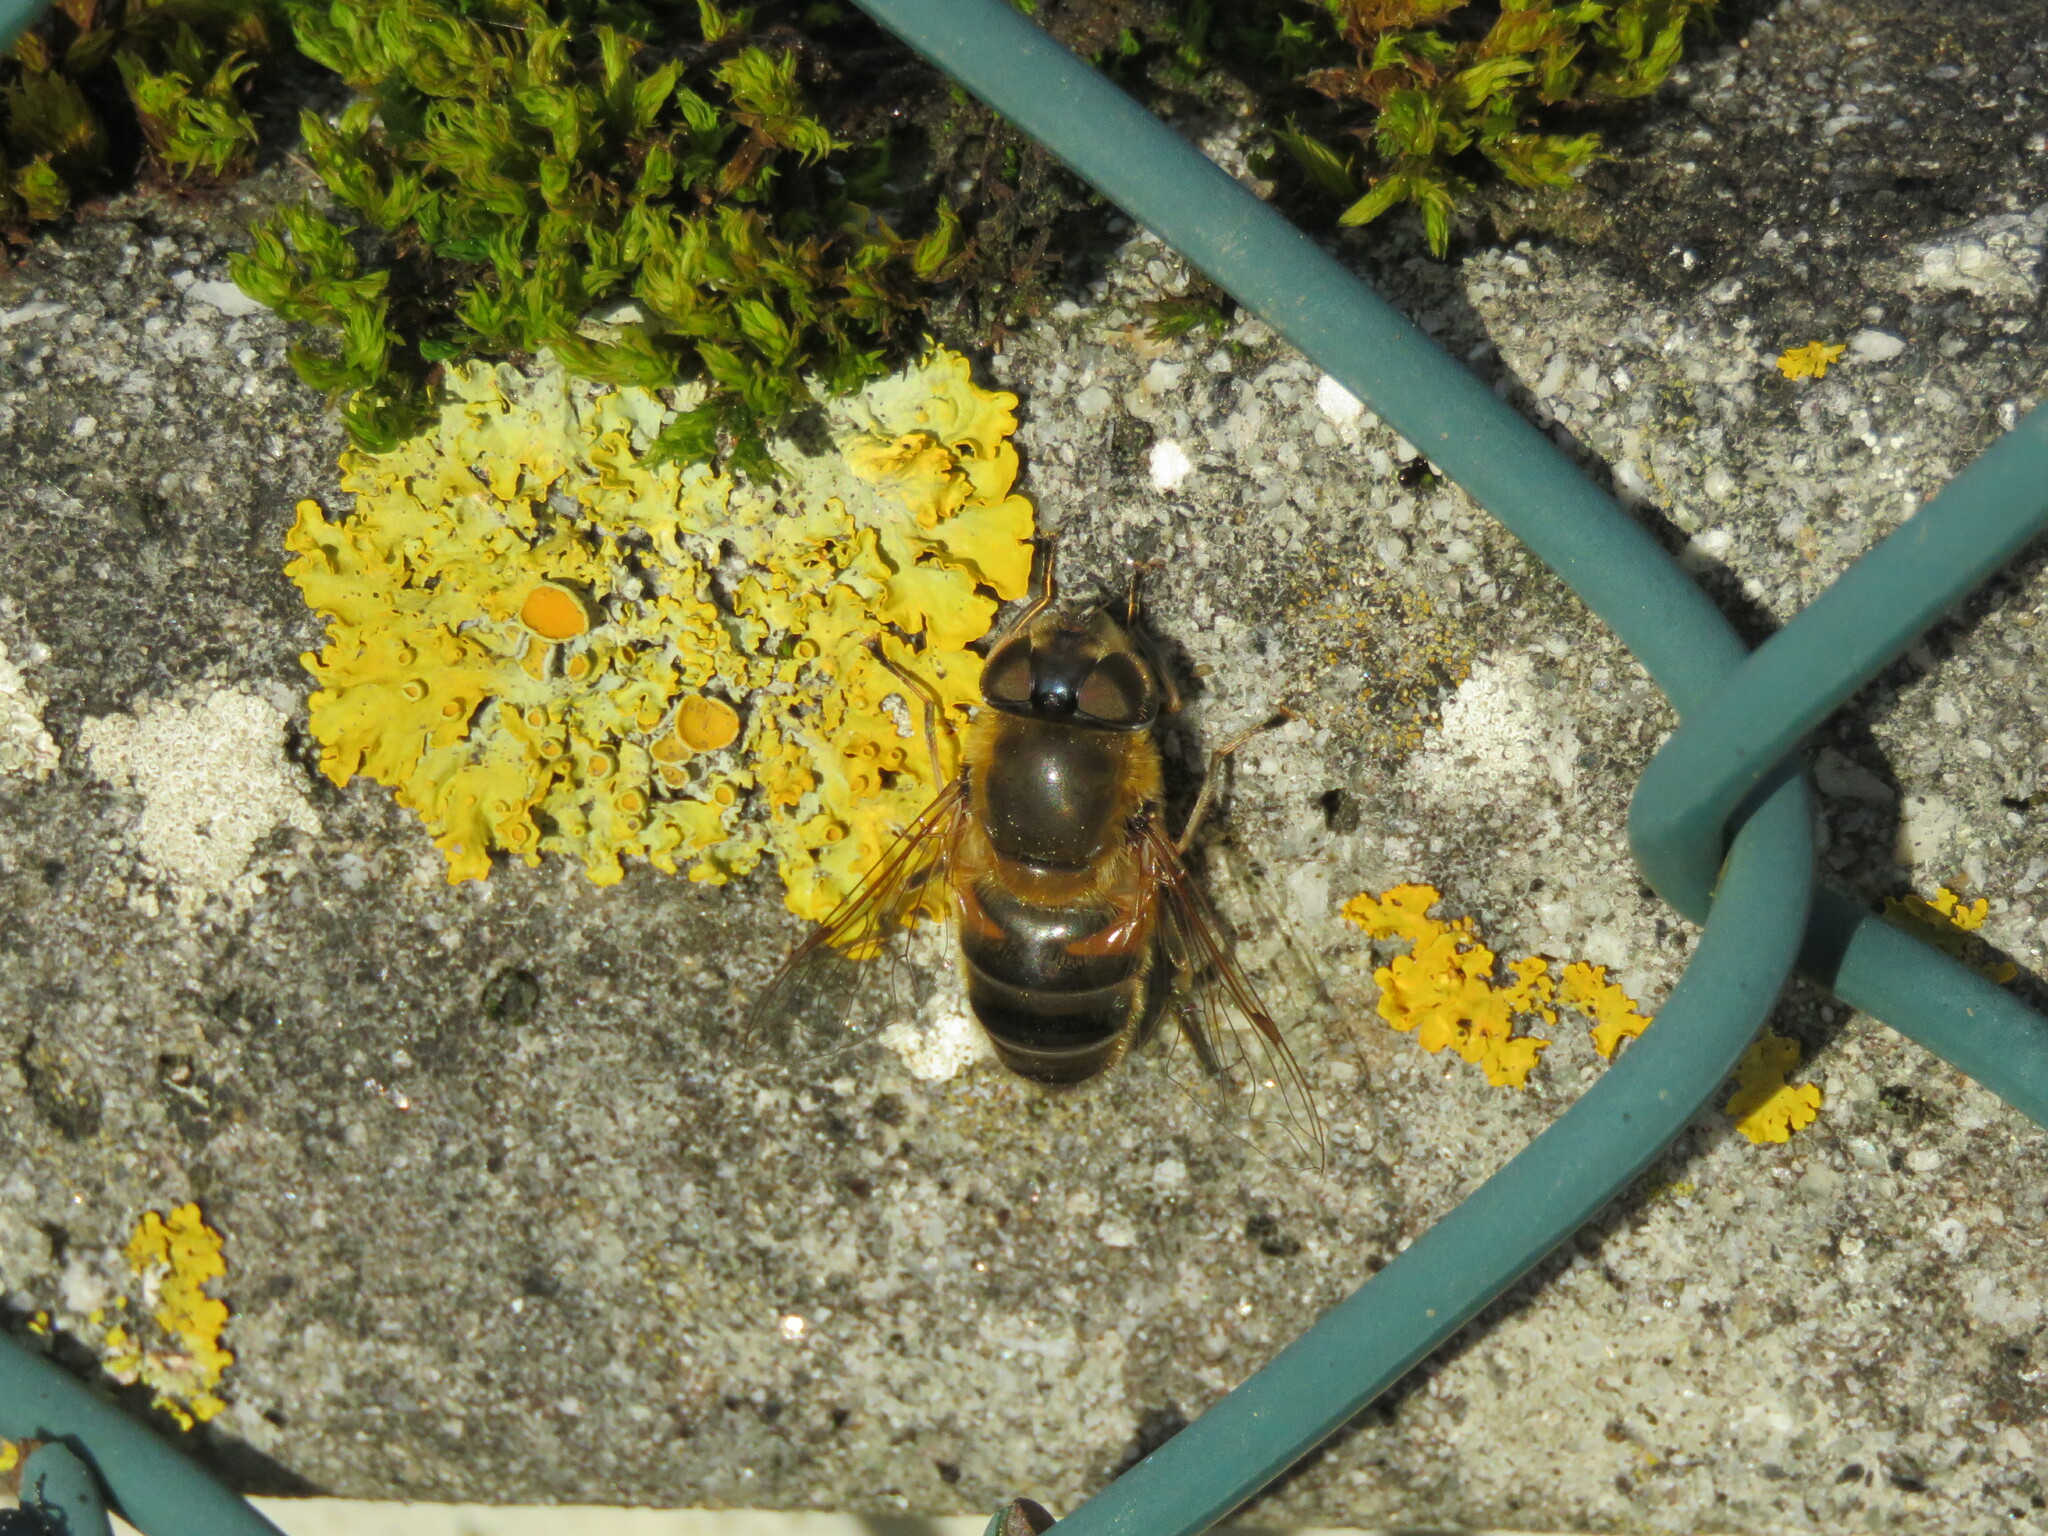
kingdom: Animalia
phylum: Arthropoda
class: Insecta
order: Diptera
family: Syrphidae
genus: Eristalis
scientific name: Eristalis pertinax
